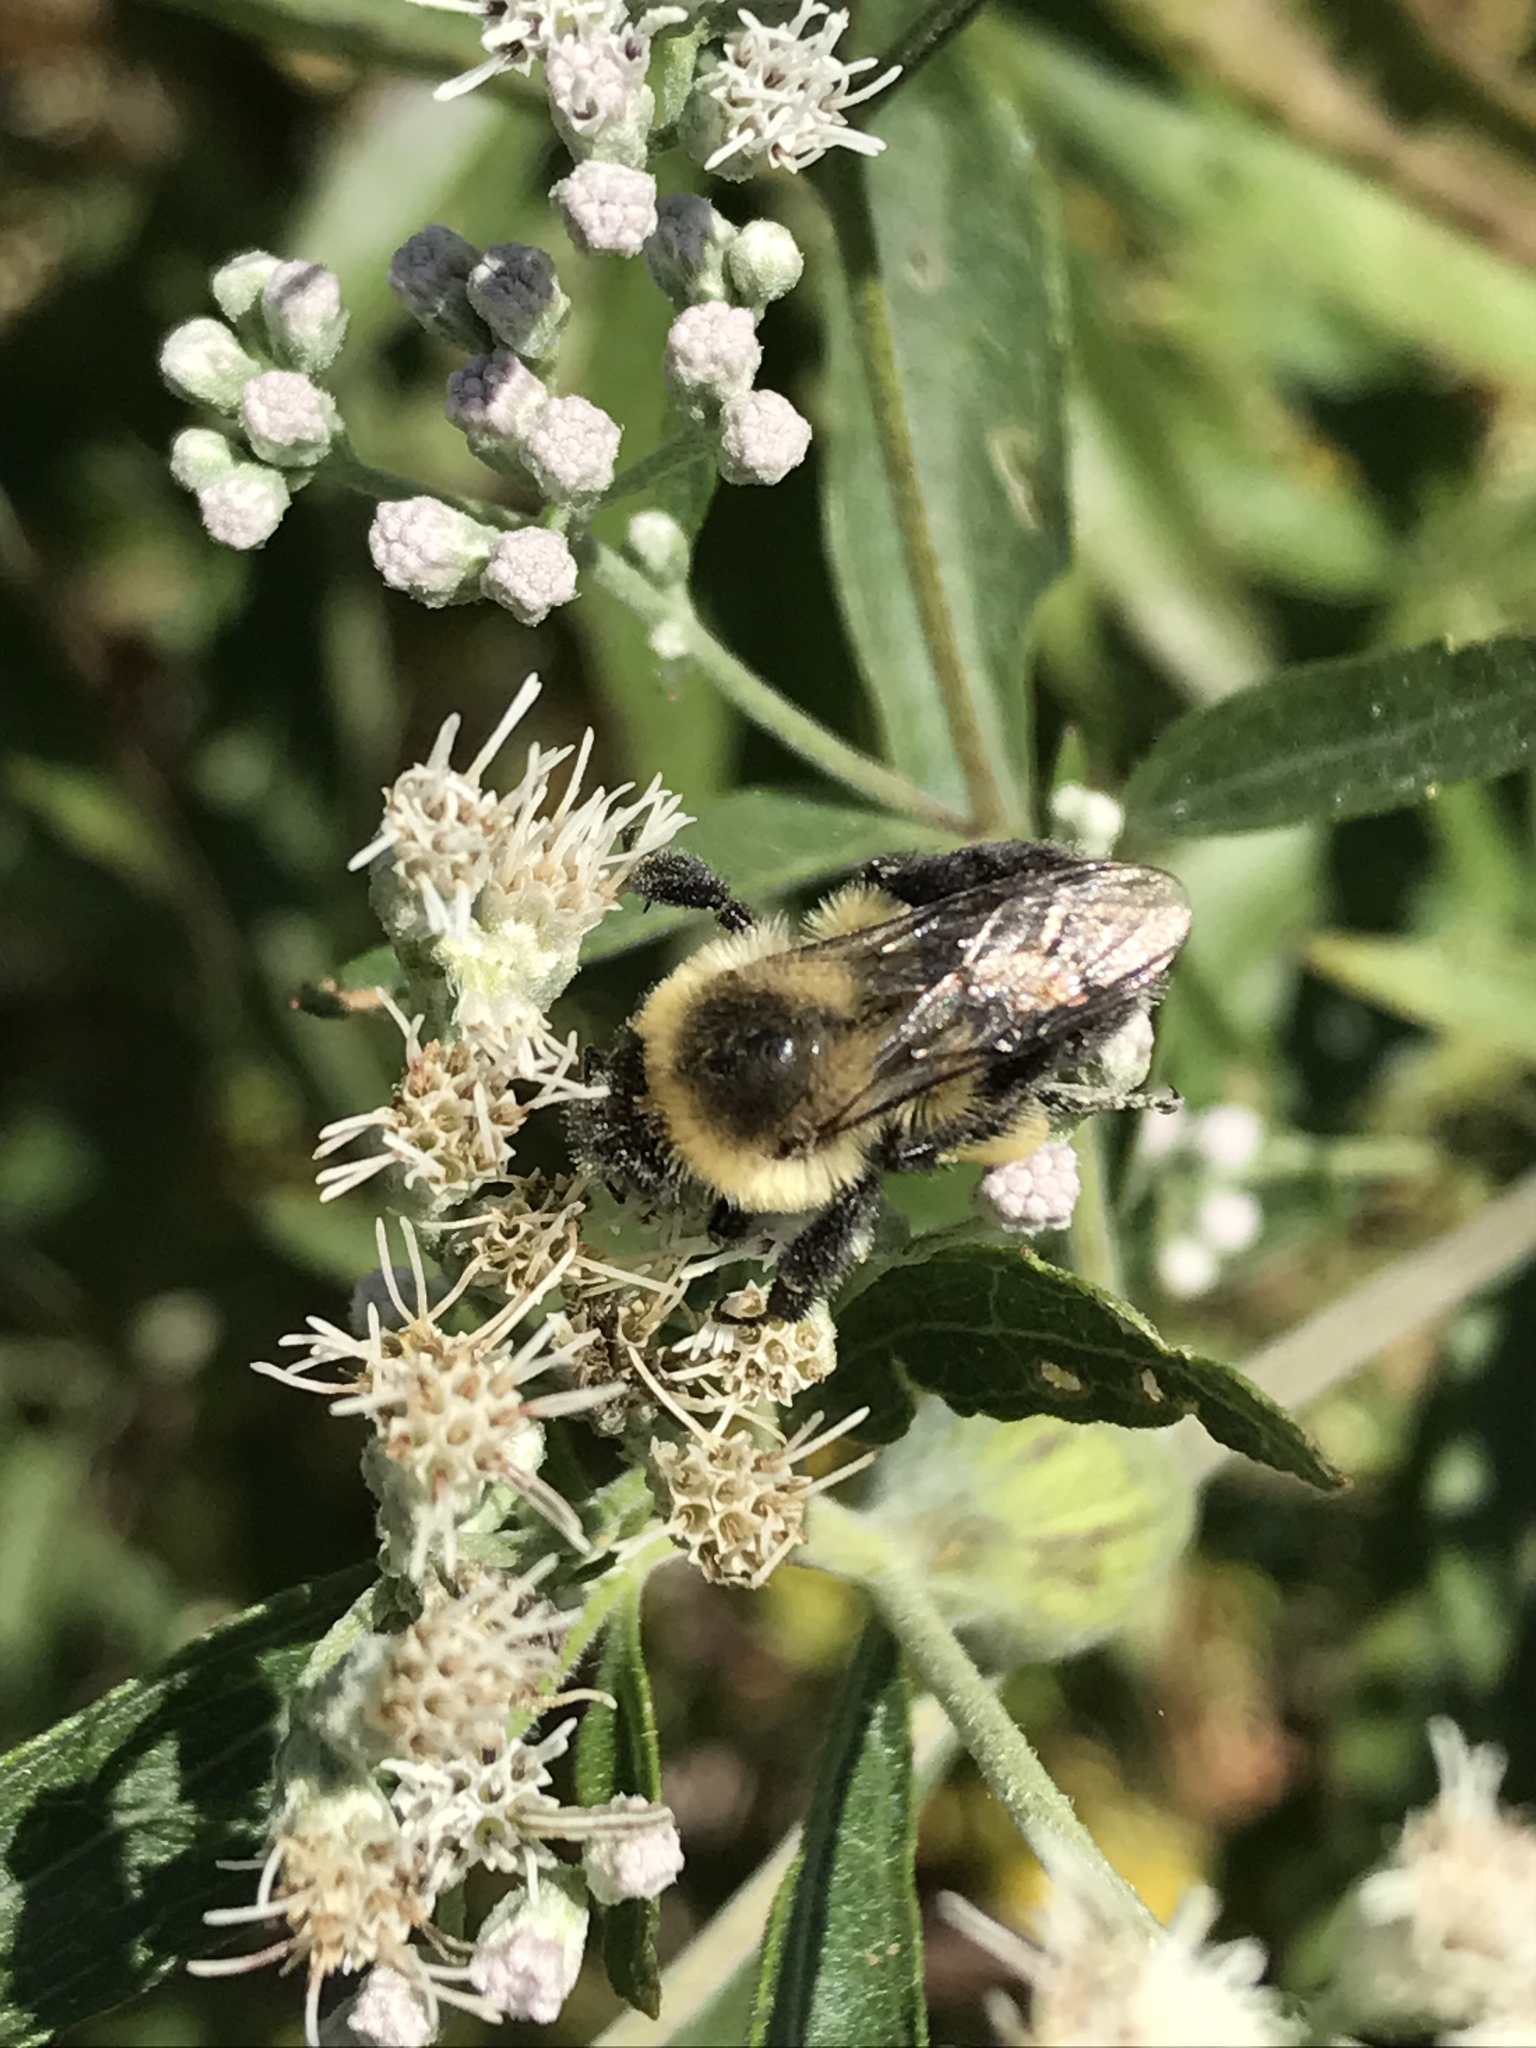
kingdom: Animalia
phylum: Arthropoda
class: Insecta
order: Hymenoptera
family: Apidae
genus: Bombus
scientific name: Bombus impatiens
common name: Common eastern bumble bee
